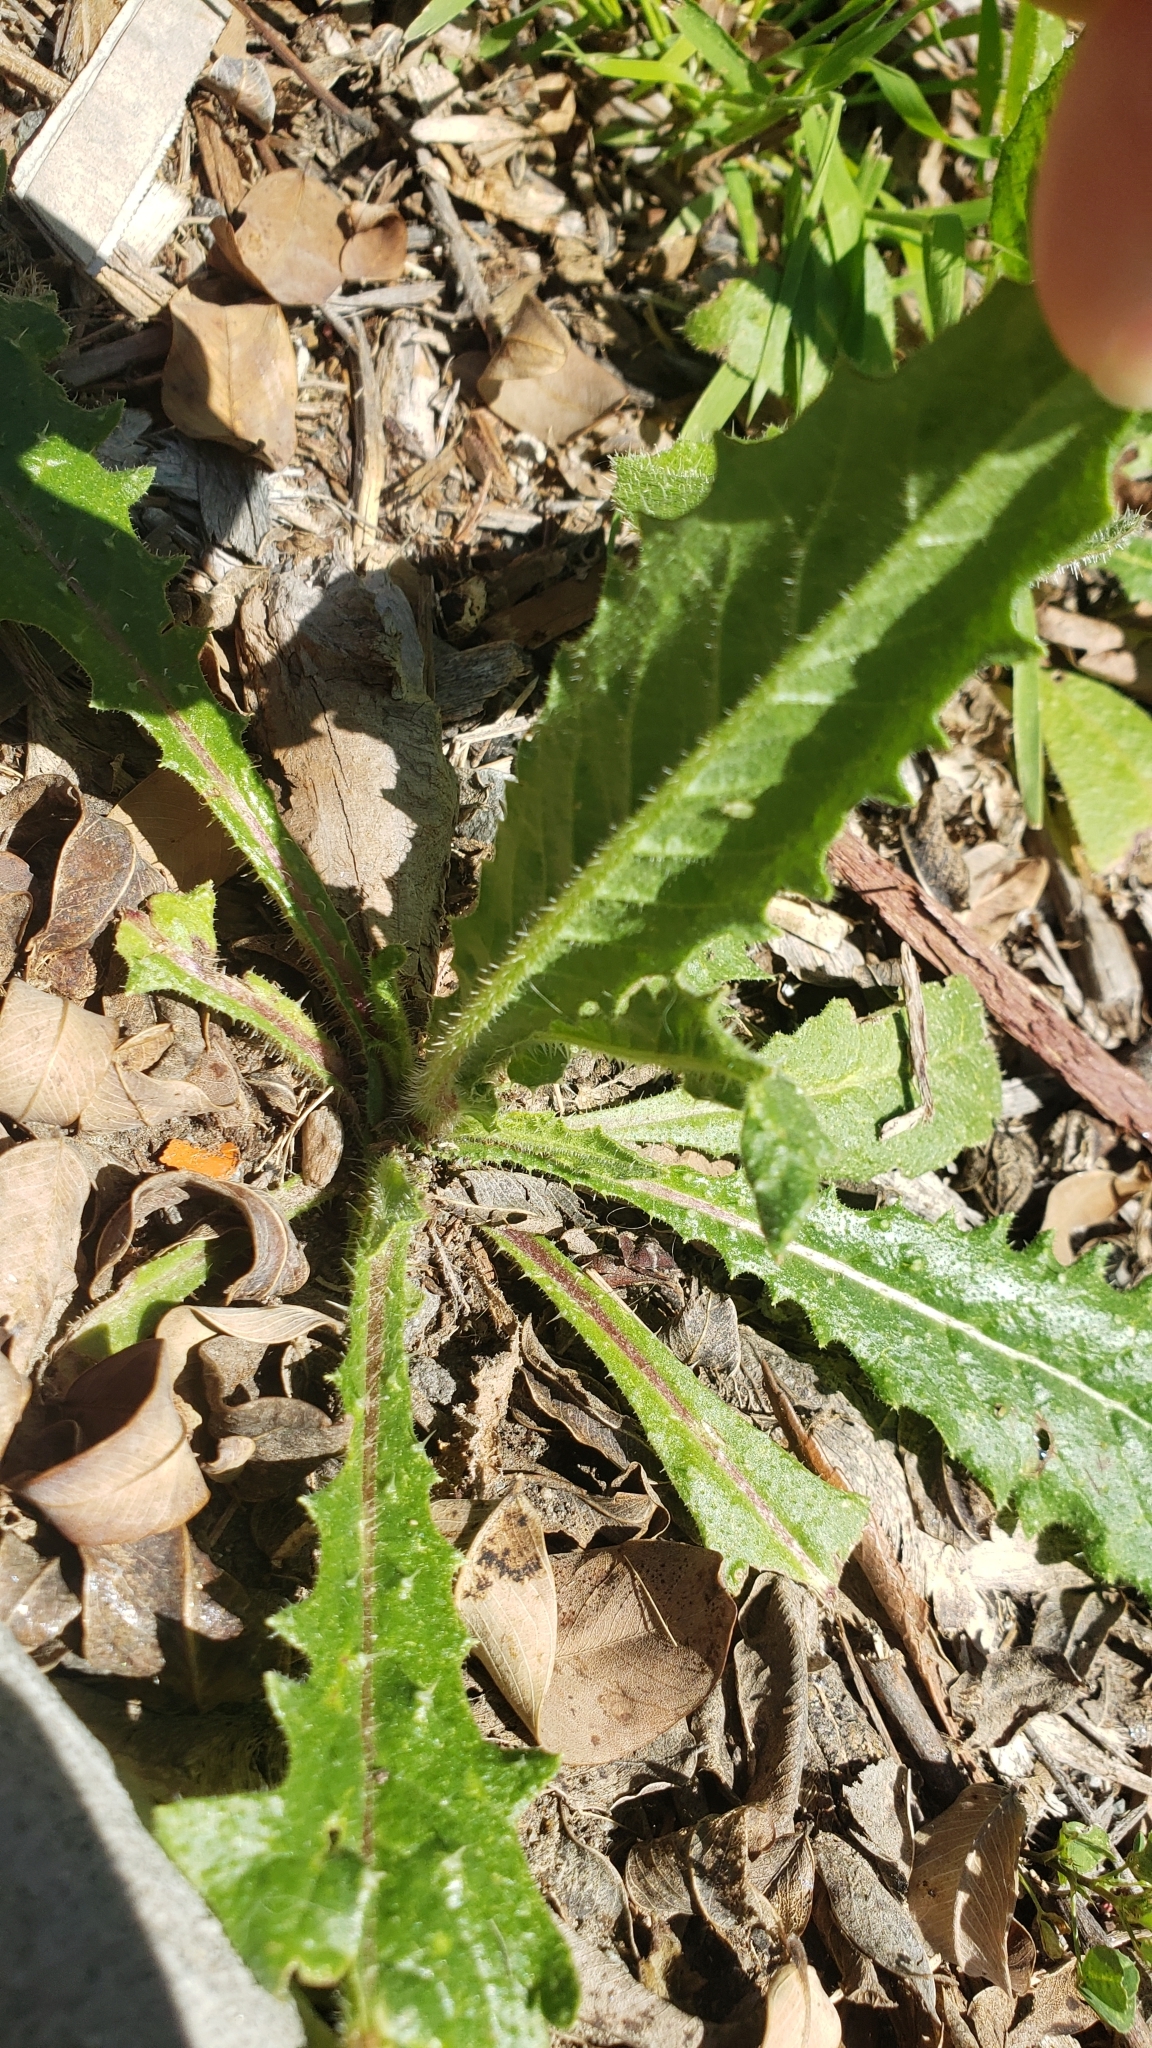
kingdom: Plantae
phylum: Tracheophyta
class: Magnoliopsida
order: Asterales
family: Asteraceae
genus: Helminthotheca
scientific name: Helminthotheca echioides
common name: Ox-tongue
